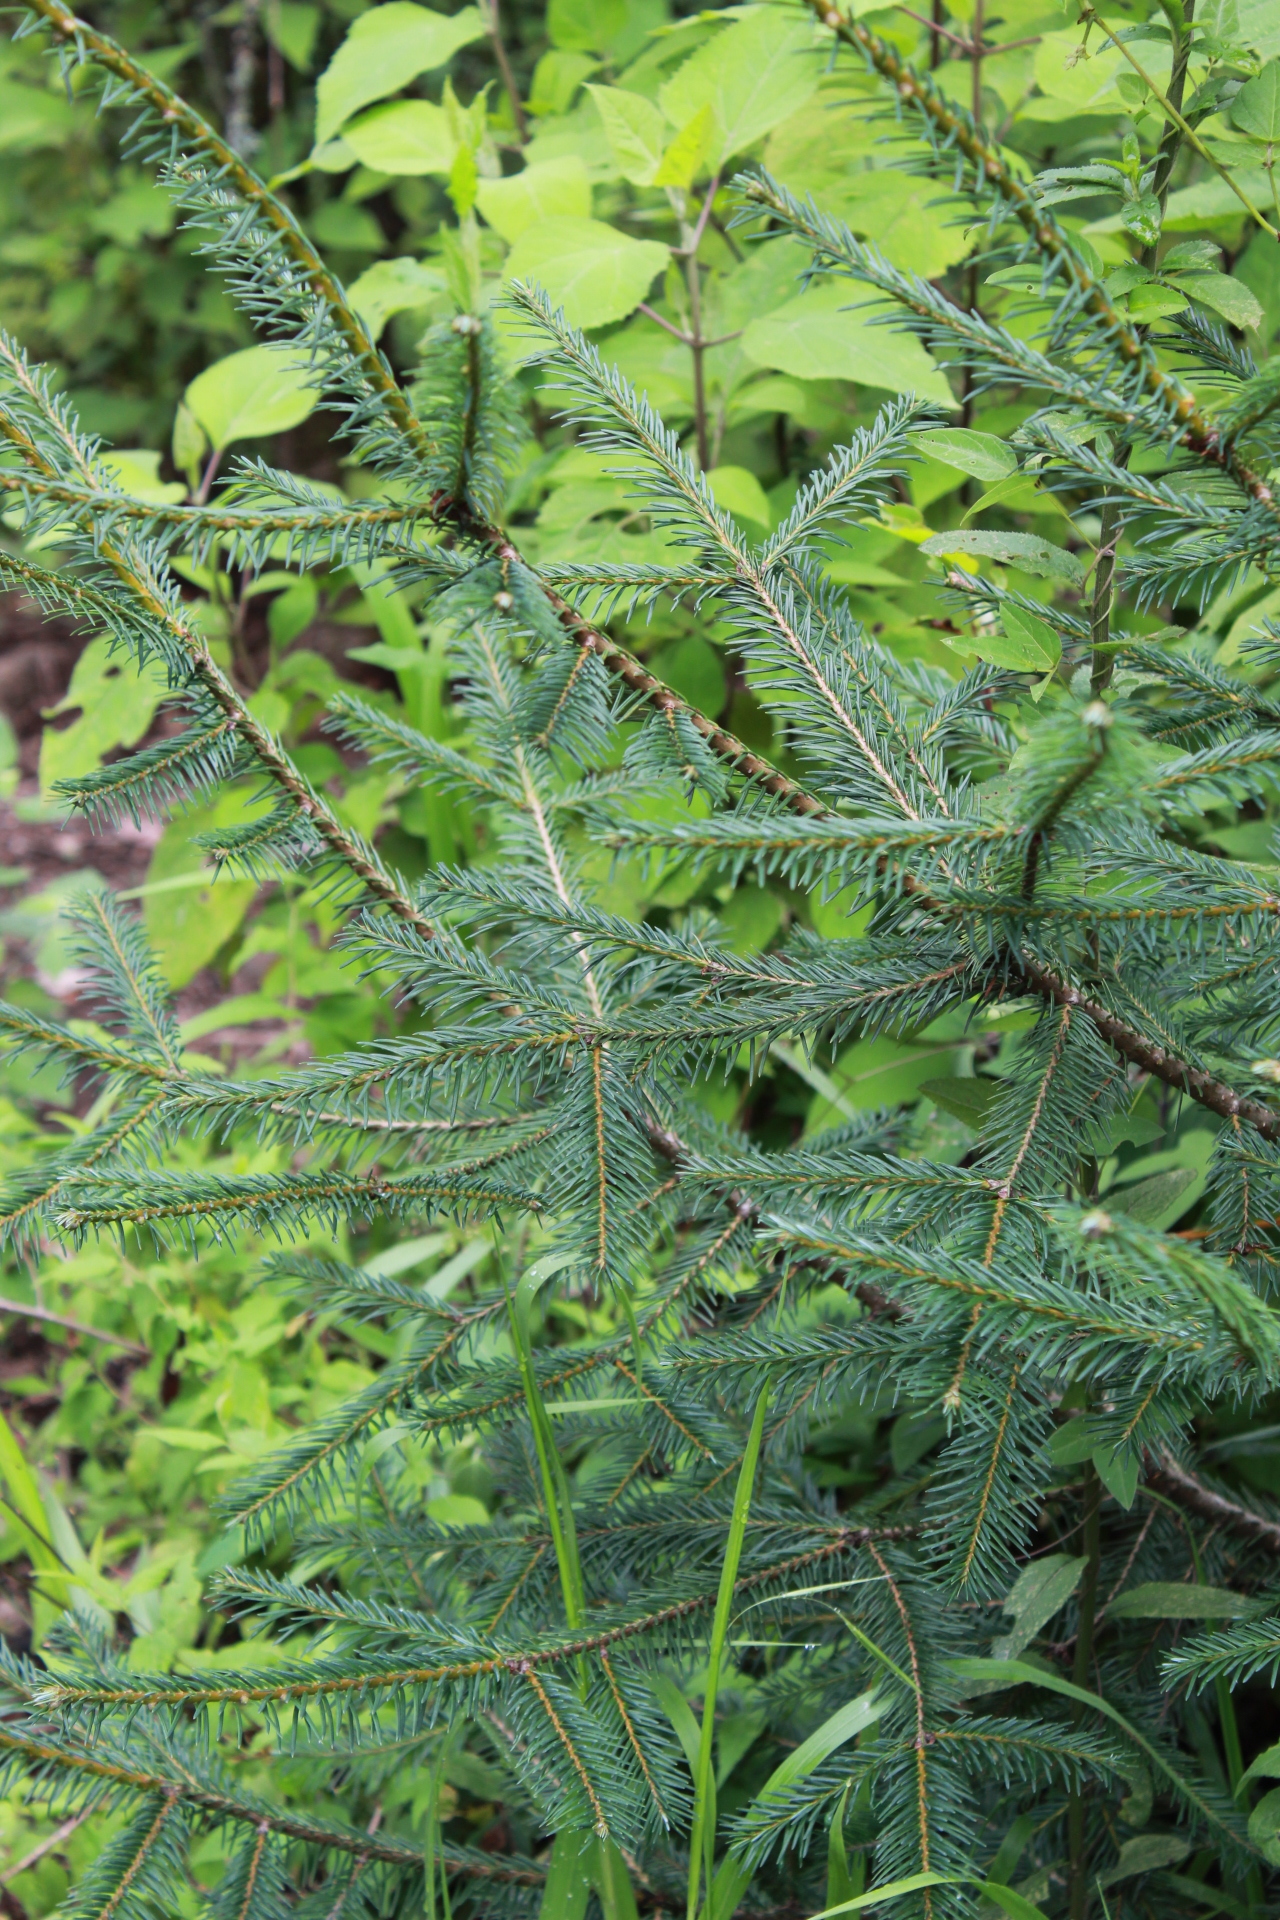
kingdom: Plantae
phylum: Tracheophyta
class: Pinopsida
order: Pinales
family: Pinaceae
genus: Abies
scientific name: Abies religiosa
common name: Sacred fir
